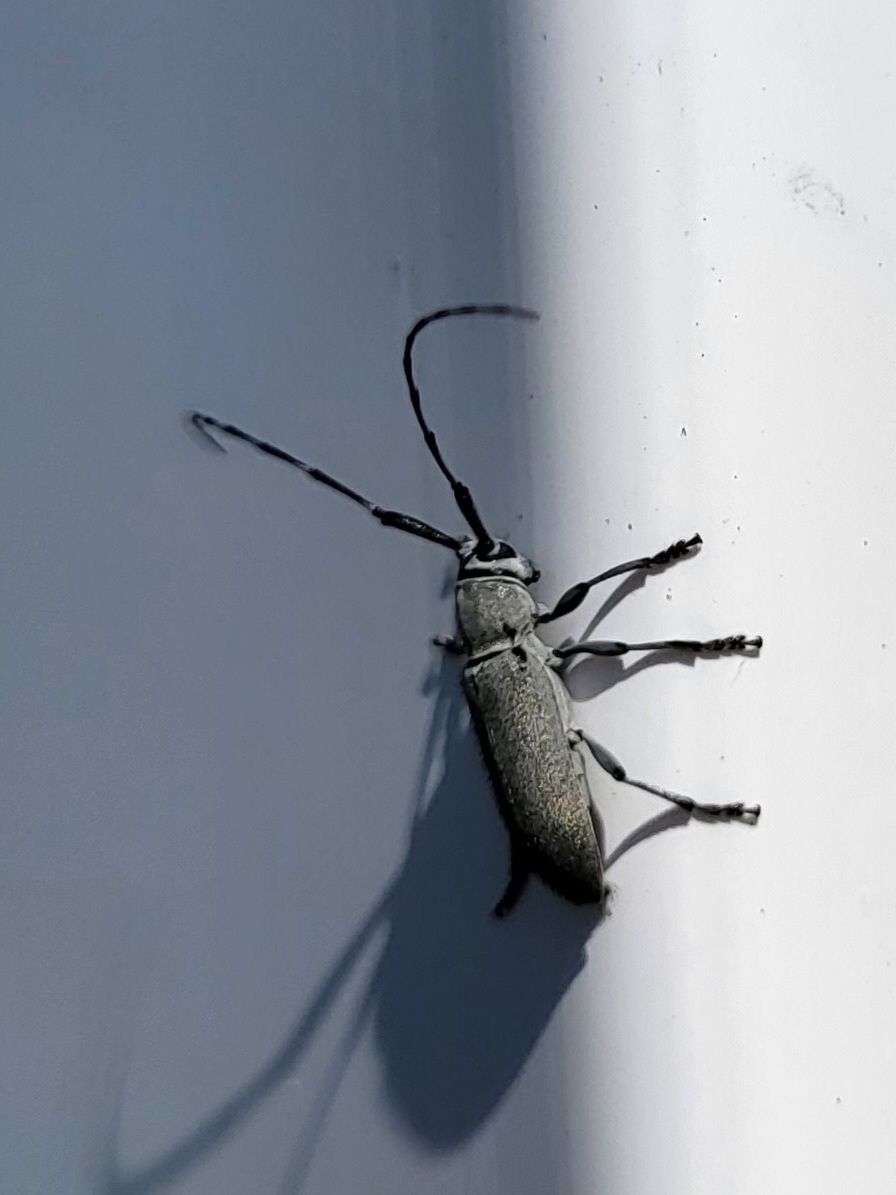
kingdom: Animalia
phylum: Arthropoda
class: Insecta
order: Coleoptera
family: Cerambycidae
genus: Dectes
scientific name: Dectes texanus
